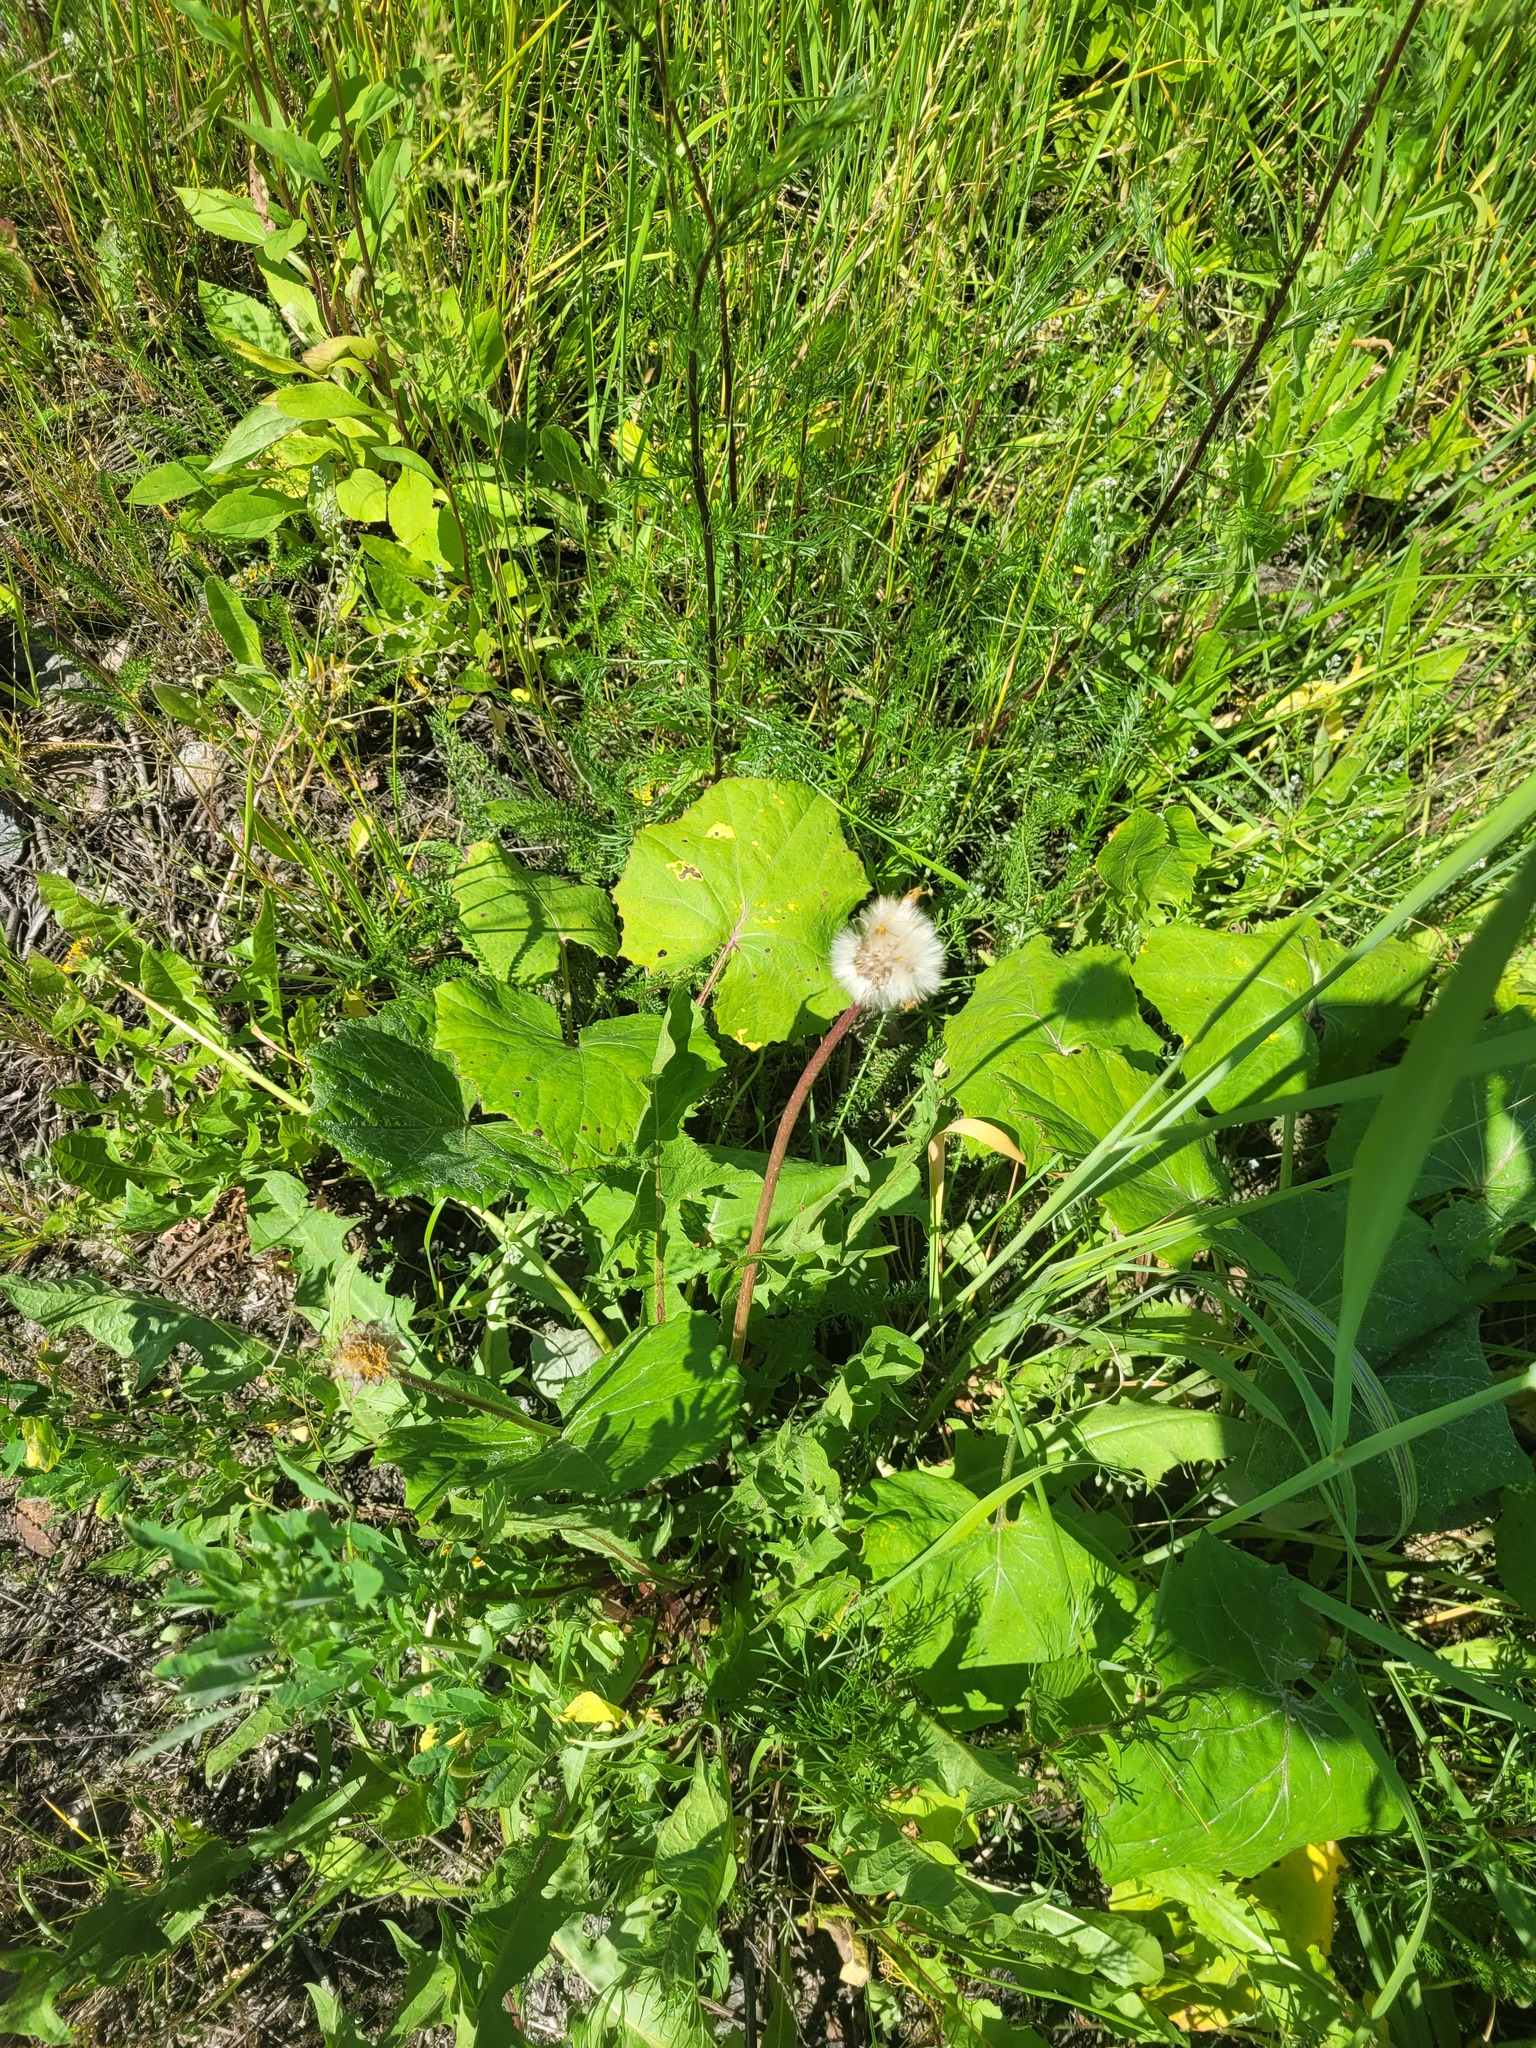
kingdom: Plantae
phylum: Tracheophyta
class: Magnoliopsida
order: Asterales
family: Asteraceae
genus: Taraxacum
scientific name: Taraxacum officinale
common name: Common dandelion
